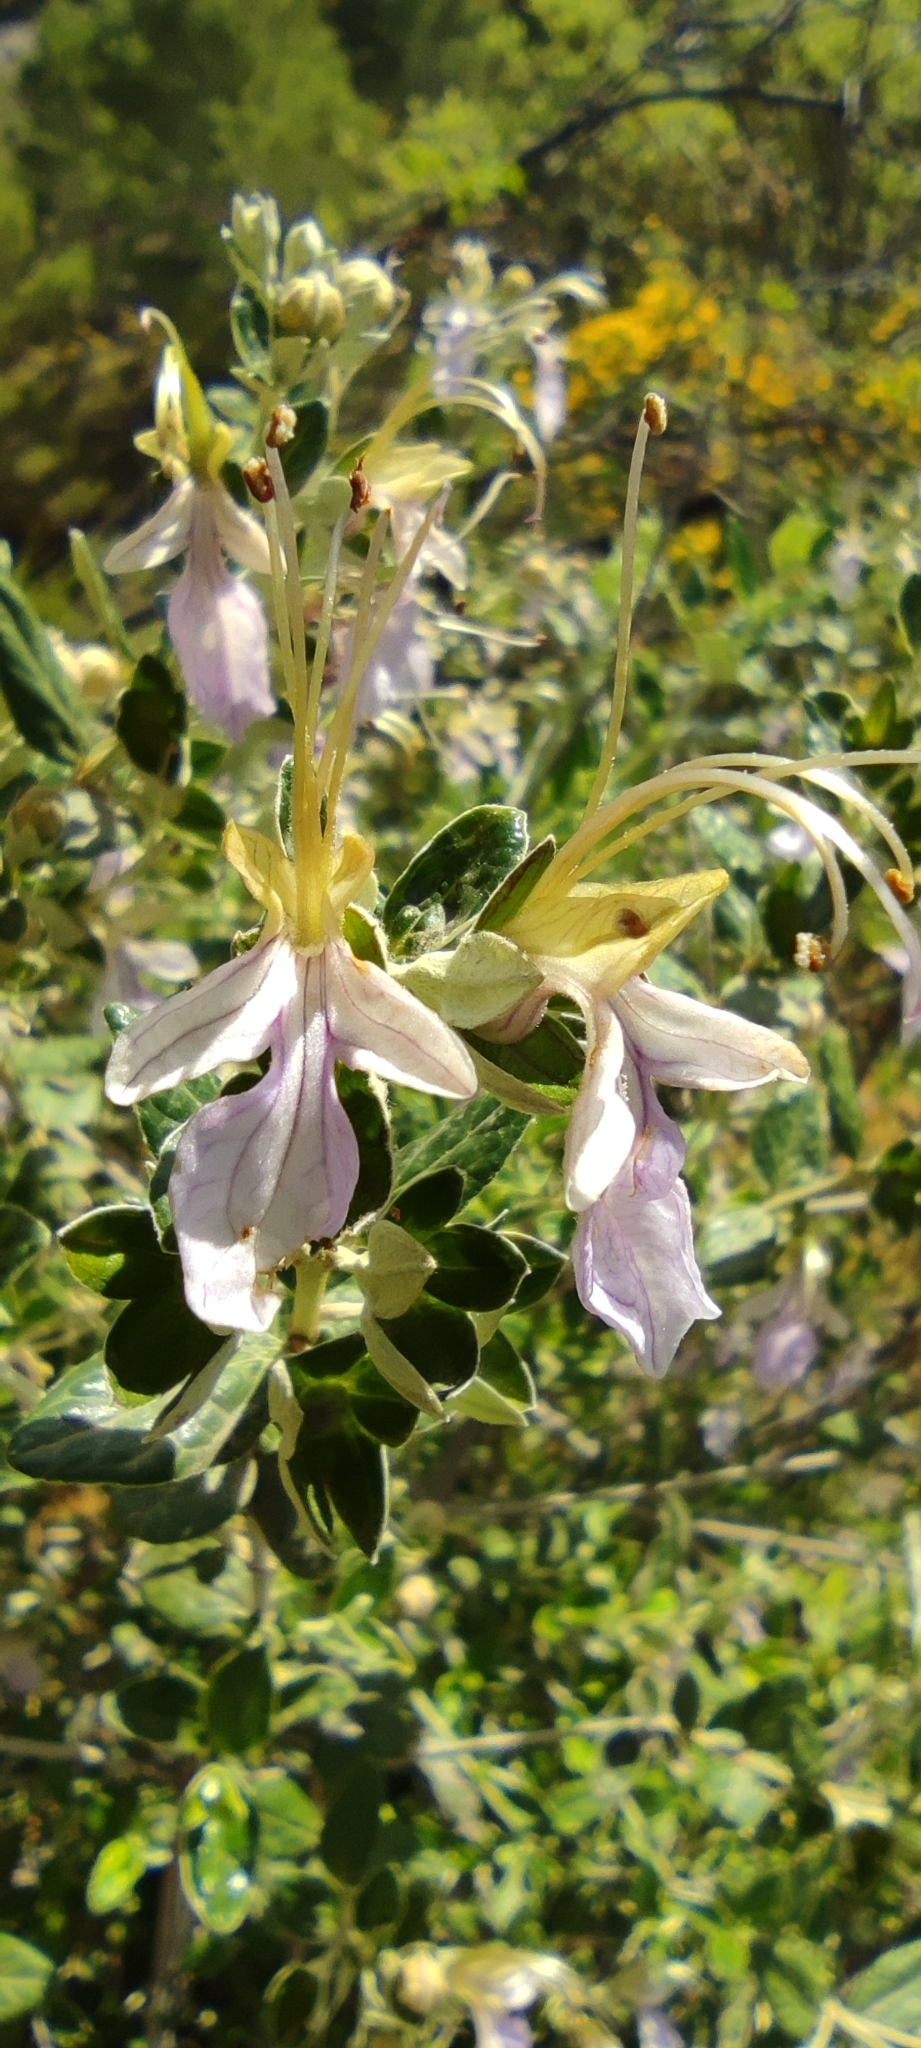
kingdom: Plantae
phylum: Tracheophyta
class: Magnoliopsida
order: Lamiales
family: Lamiaceae
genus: Teucrium
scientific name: Teucrium fruticans
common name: Shrubby germander
